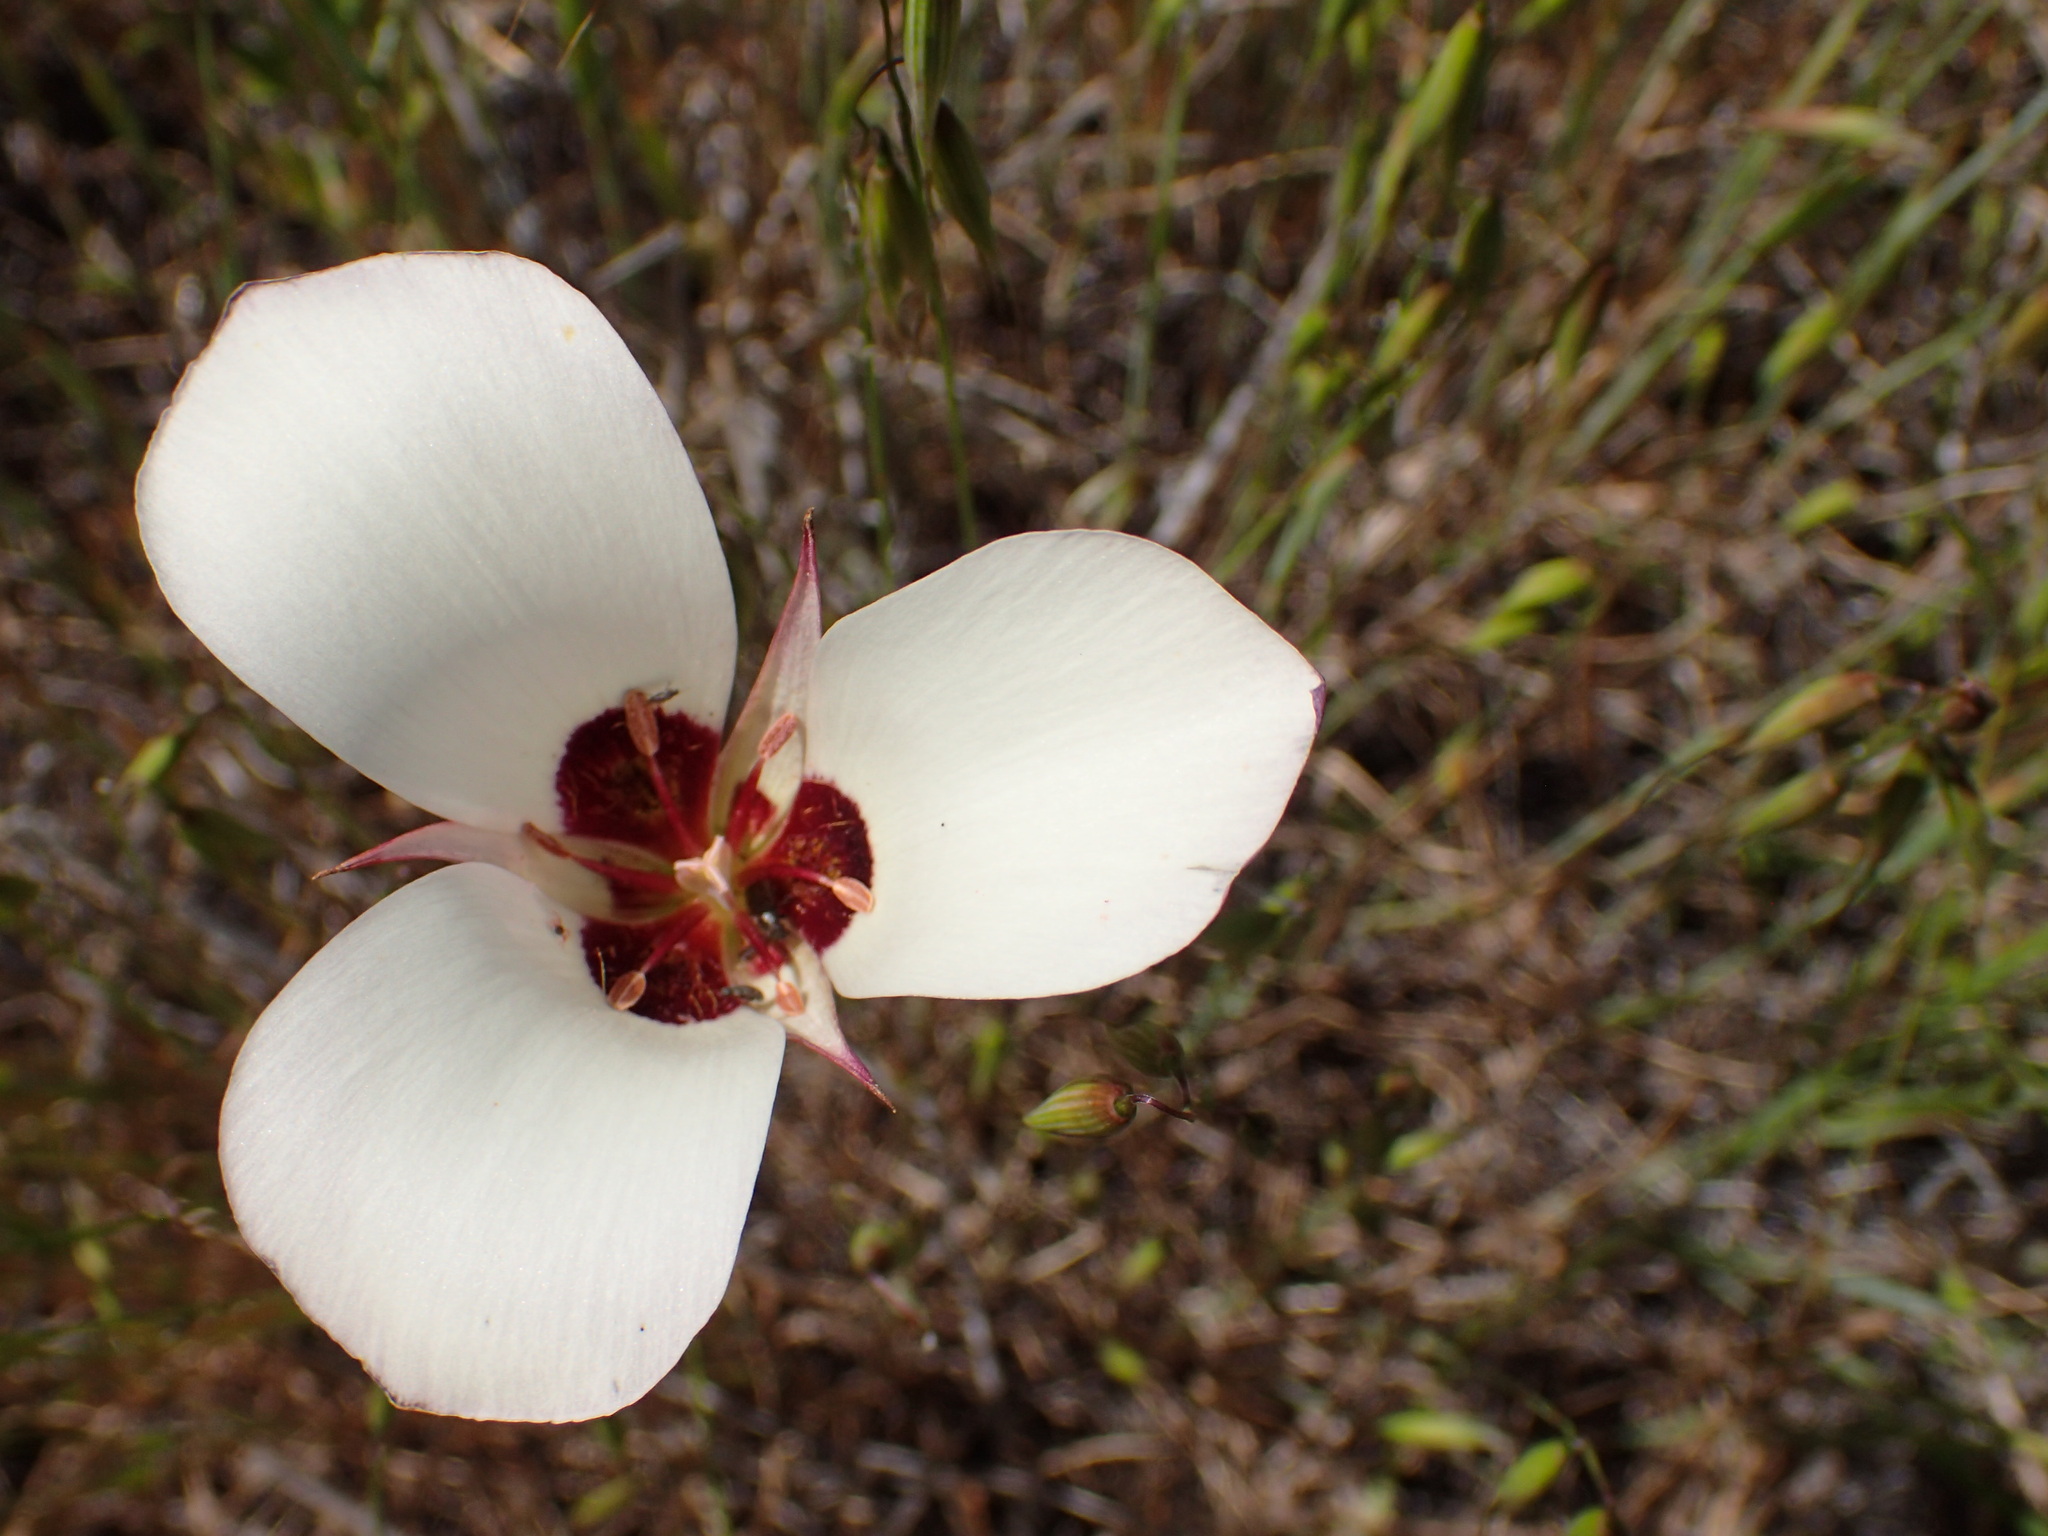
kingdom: Plantae
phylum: Tracheophyta
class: Liliopsida
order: Liliales
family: Liliaceae
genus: Calochortus
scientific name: Calochortus catalinae
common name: Catalina mariposa-lily
